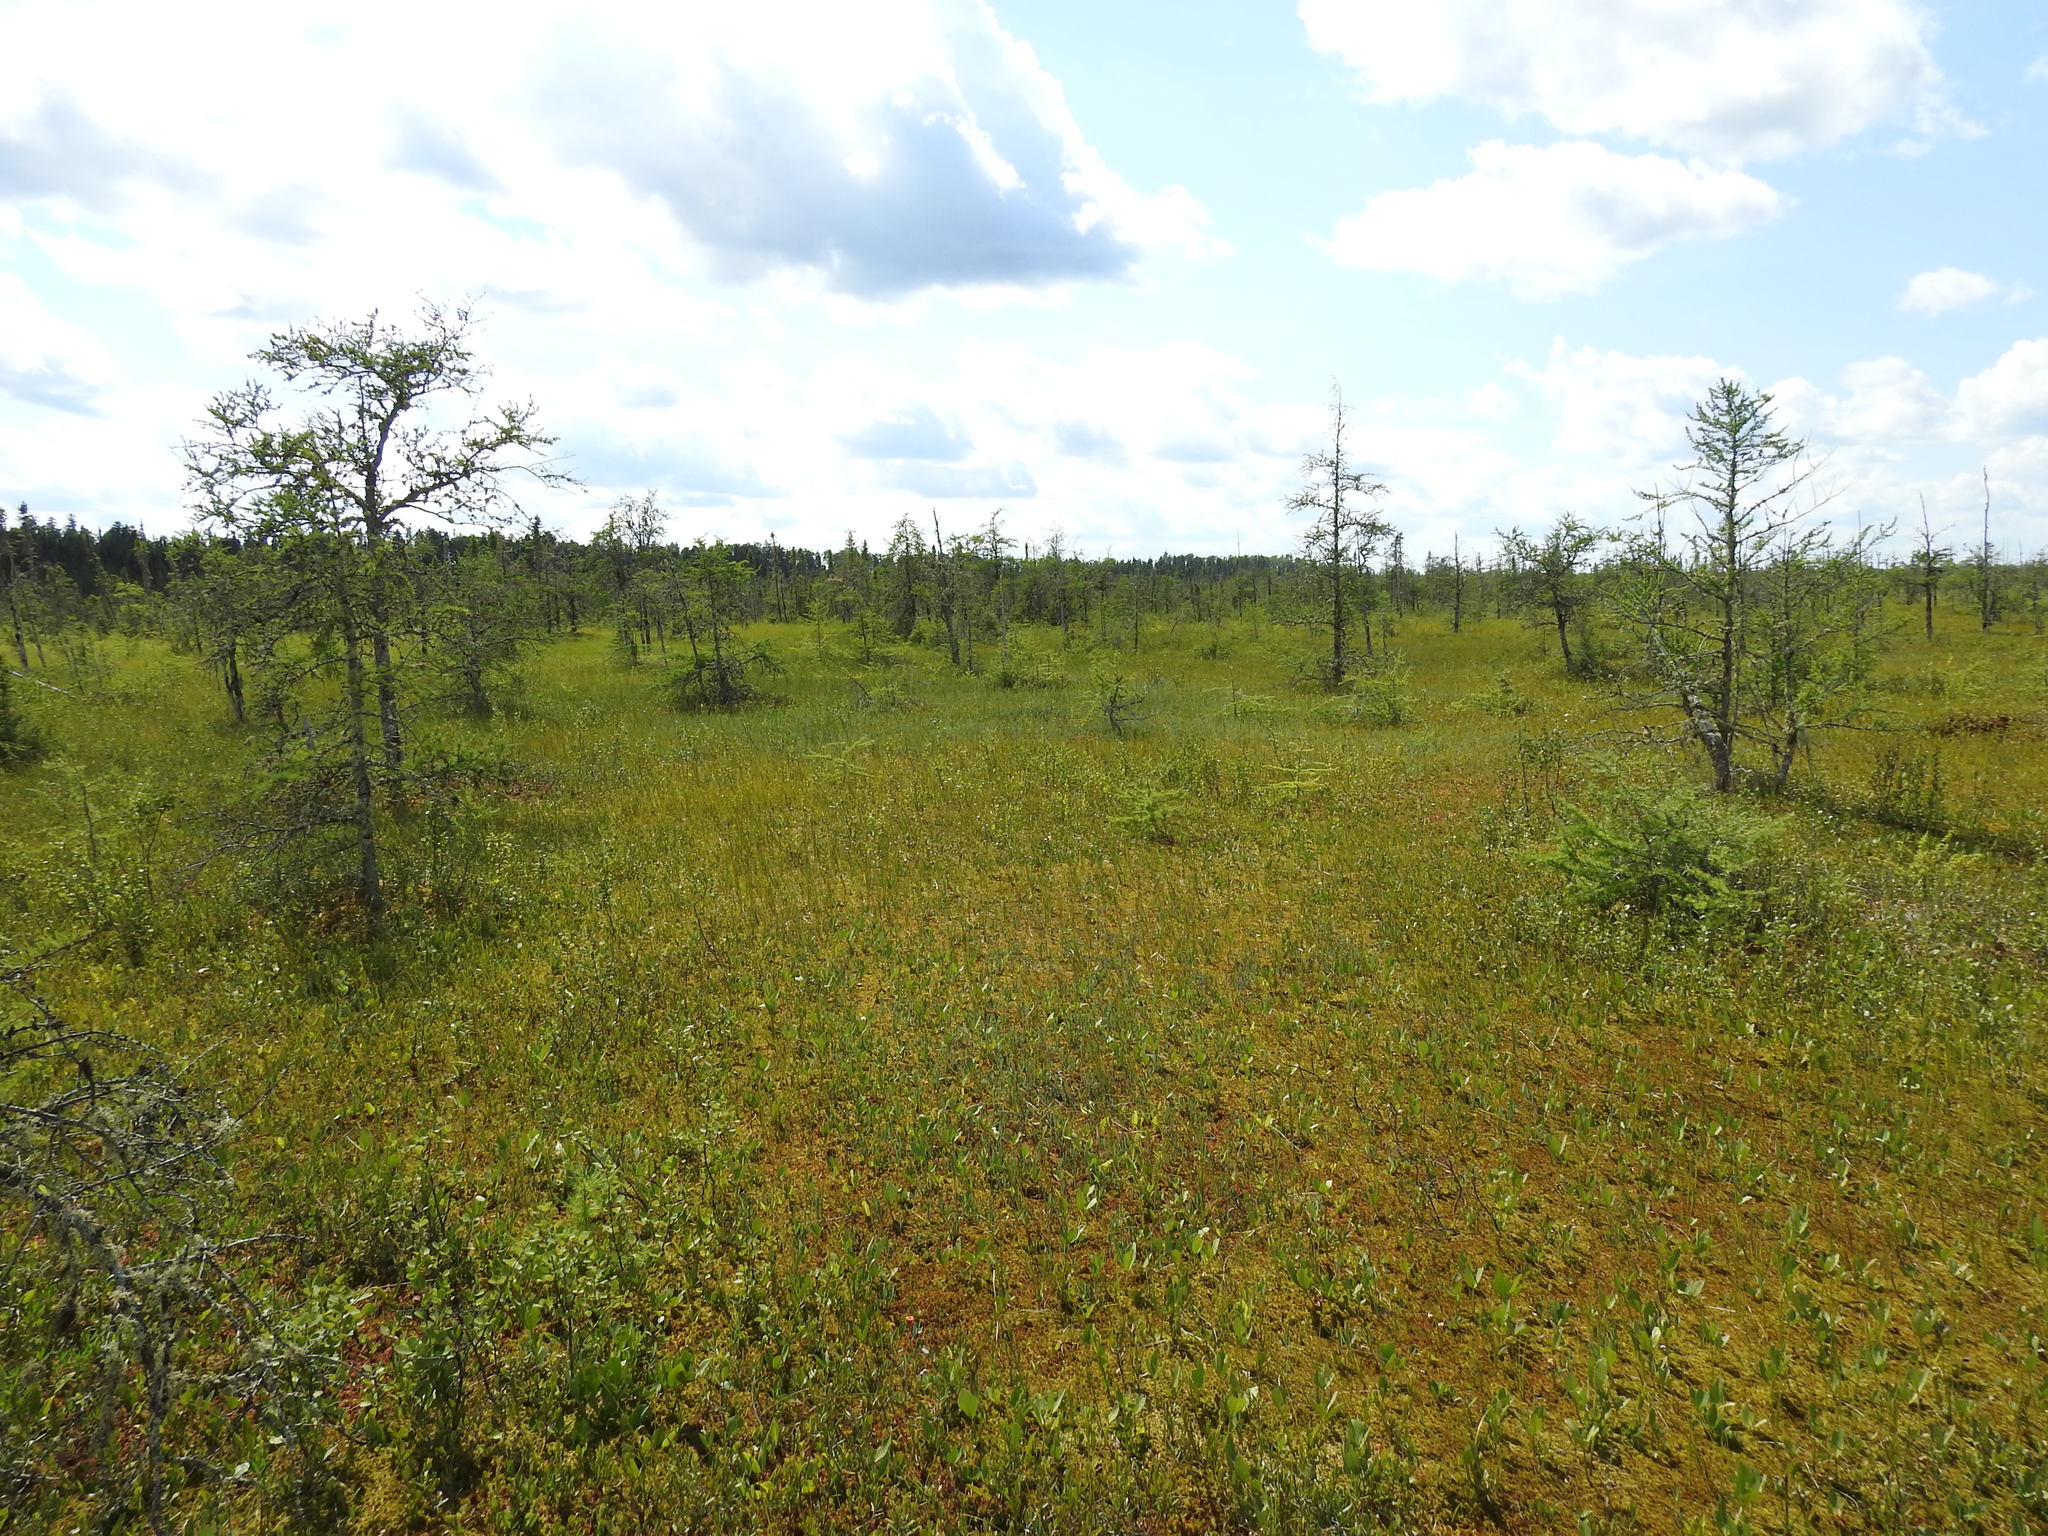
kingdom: Plantae
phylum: Tracheophyta
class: Pinopsida
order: Pinales
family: Pinaceae
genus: Larix
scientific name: Larix laricina
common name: American larch
